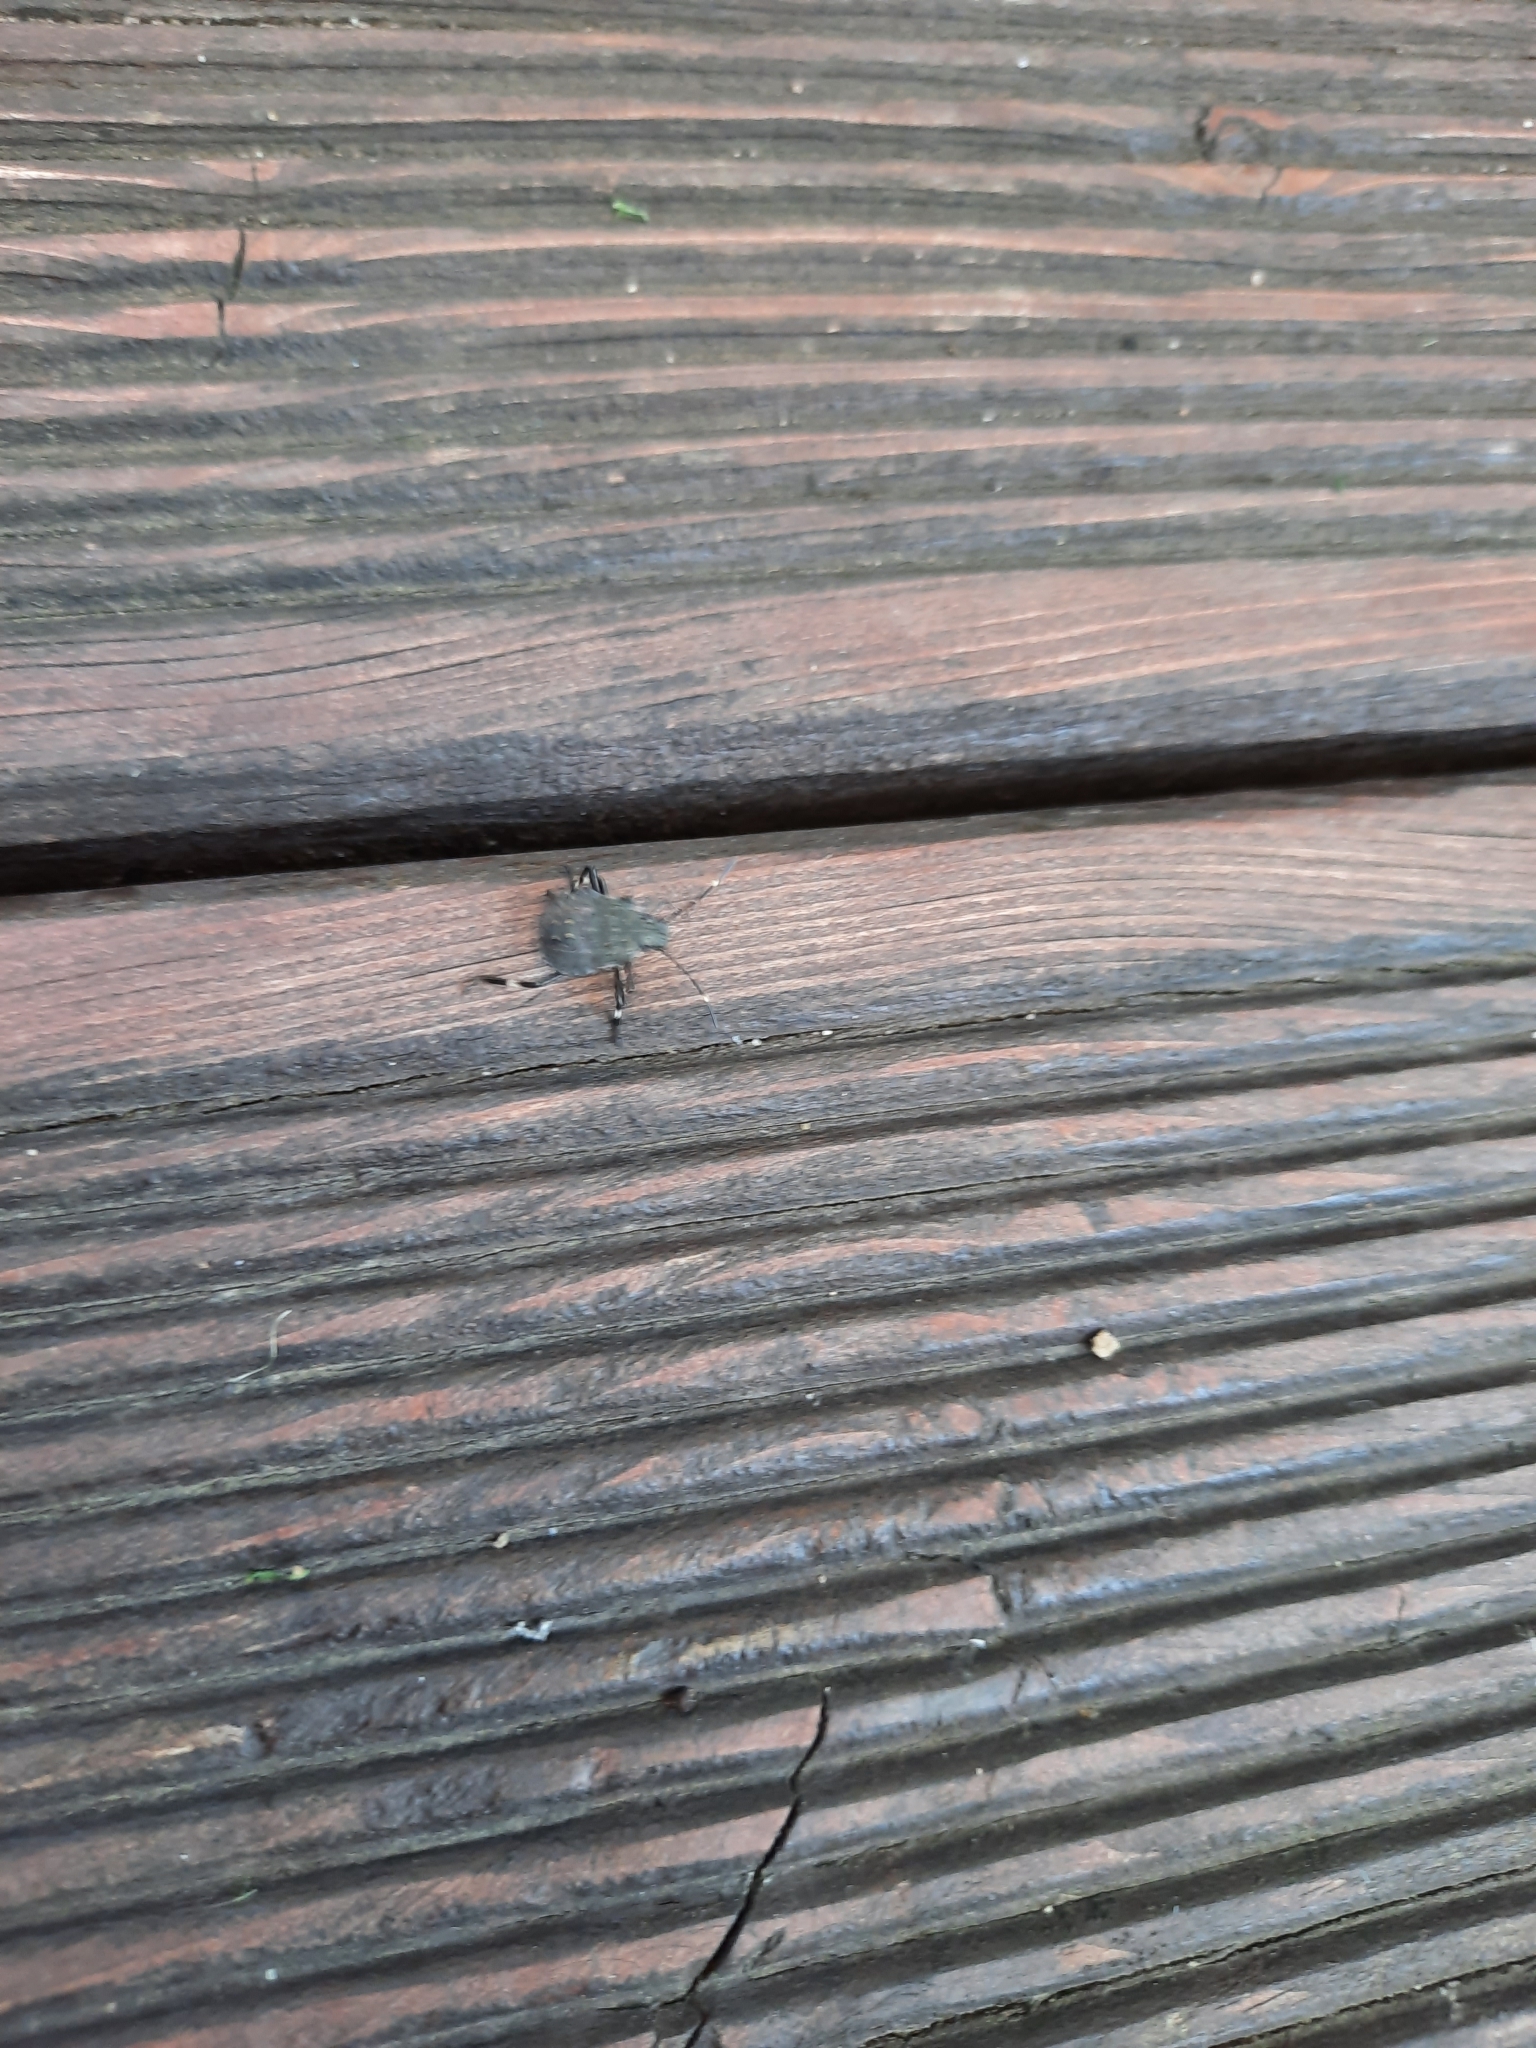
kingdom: Animalia
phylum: Arthropoda
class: Insecta
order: Hemiptera
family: Pentatomidae
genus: Halyomorpha
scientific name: Halyomorpha halys
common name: Brown marmorated stink bug
